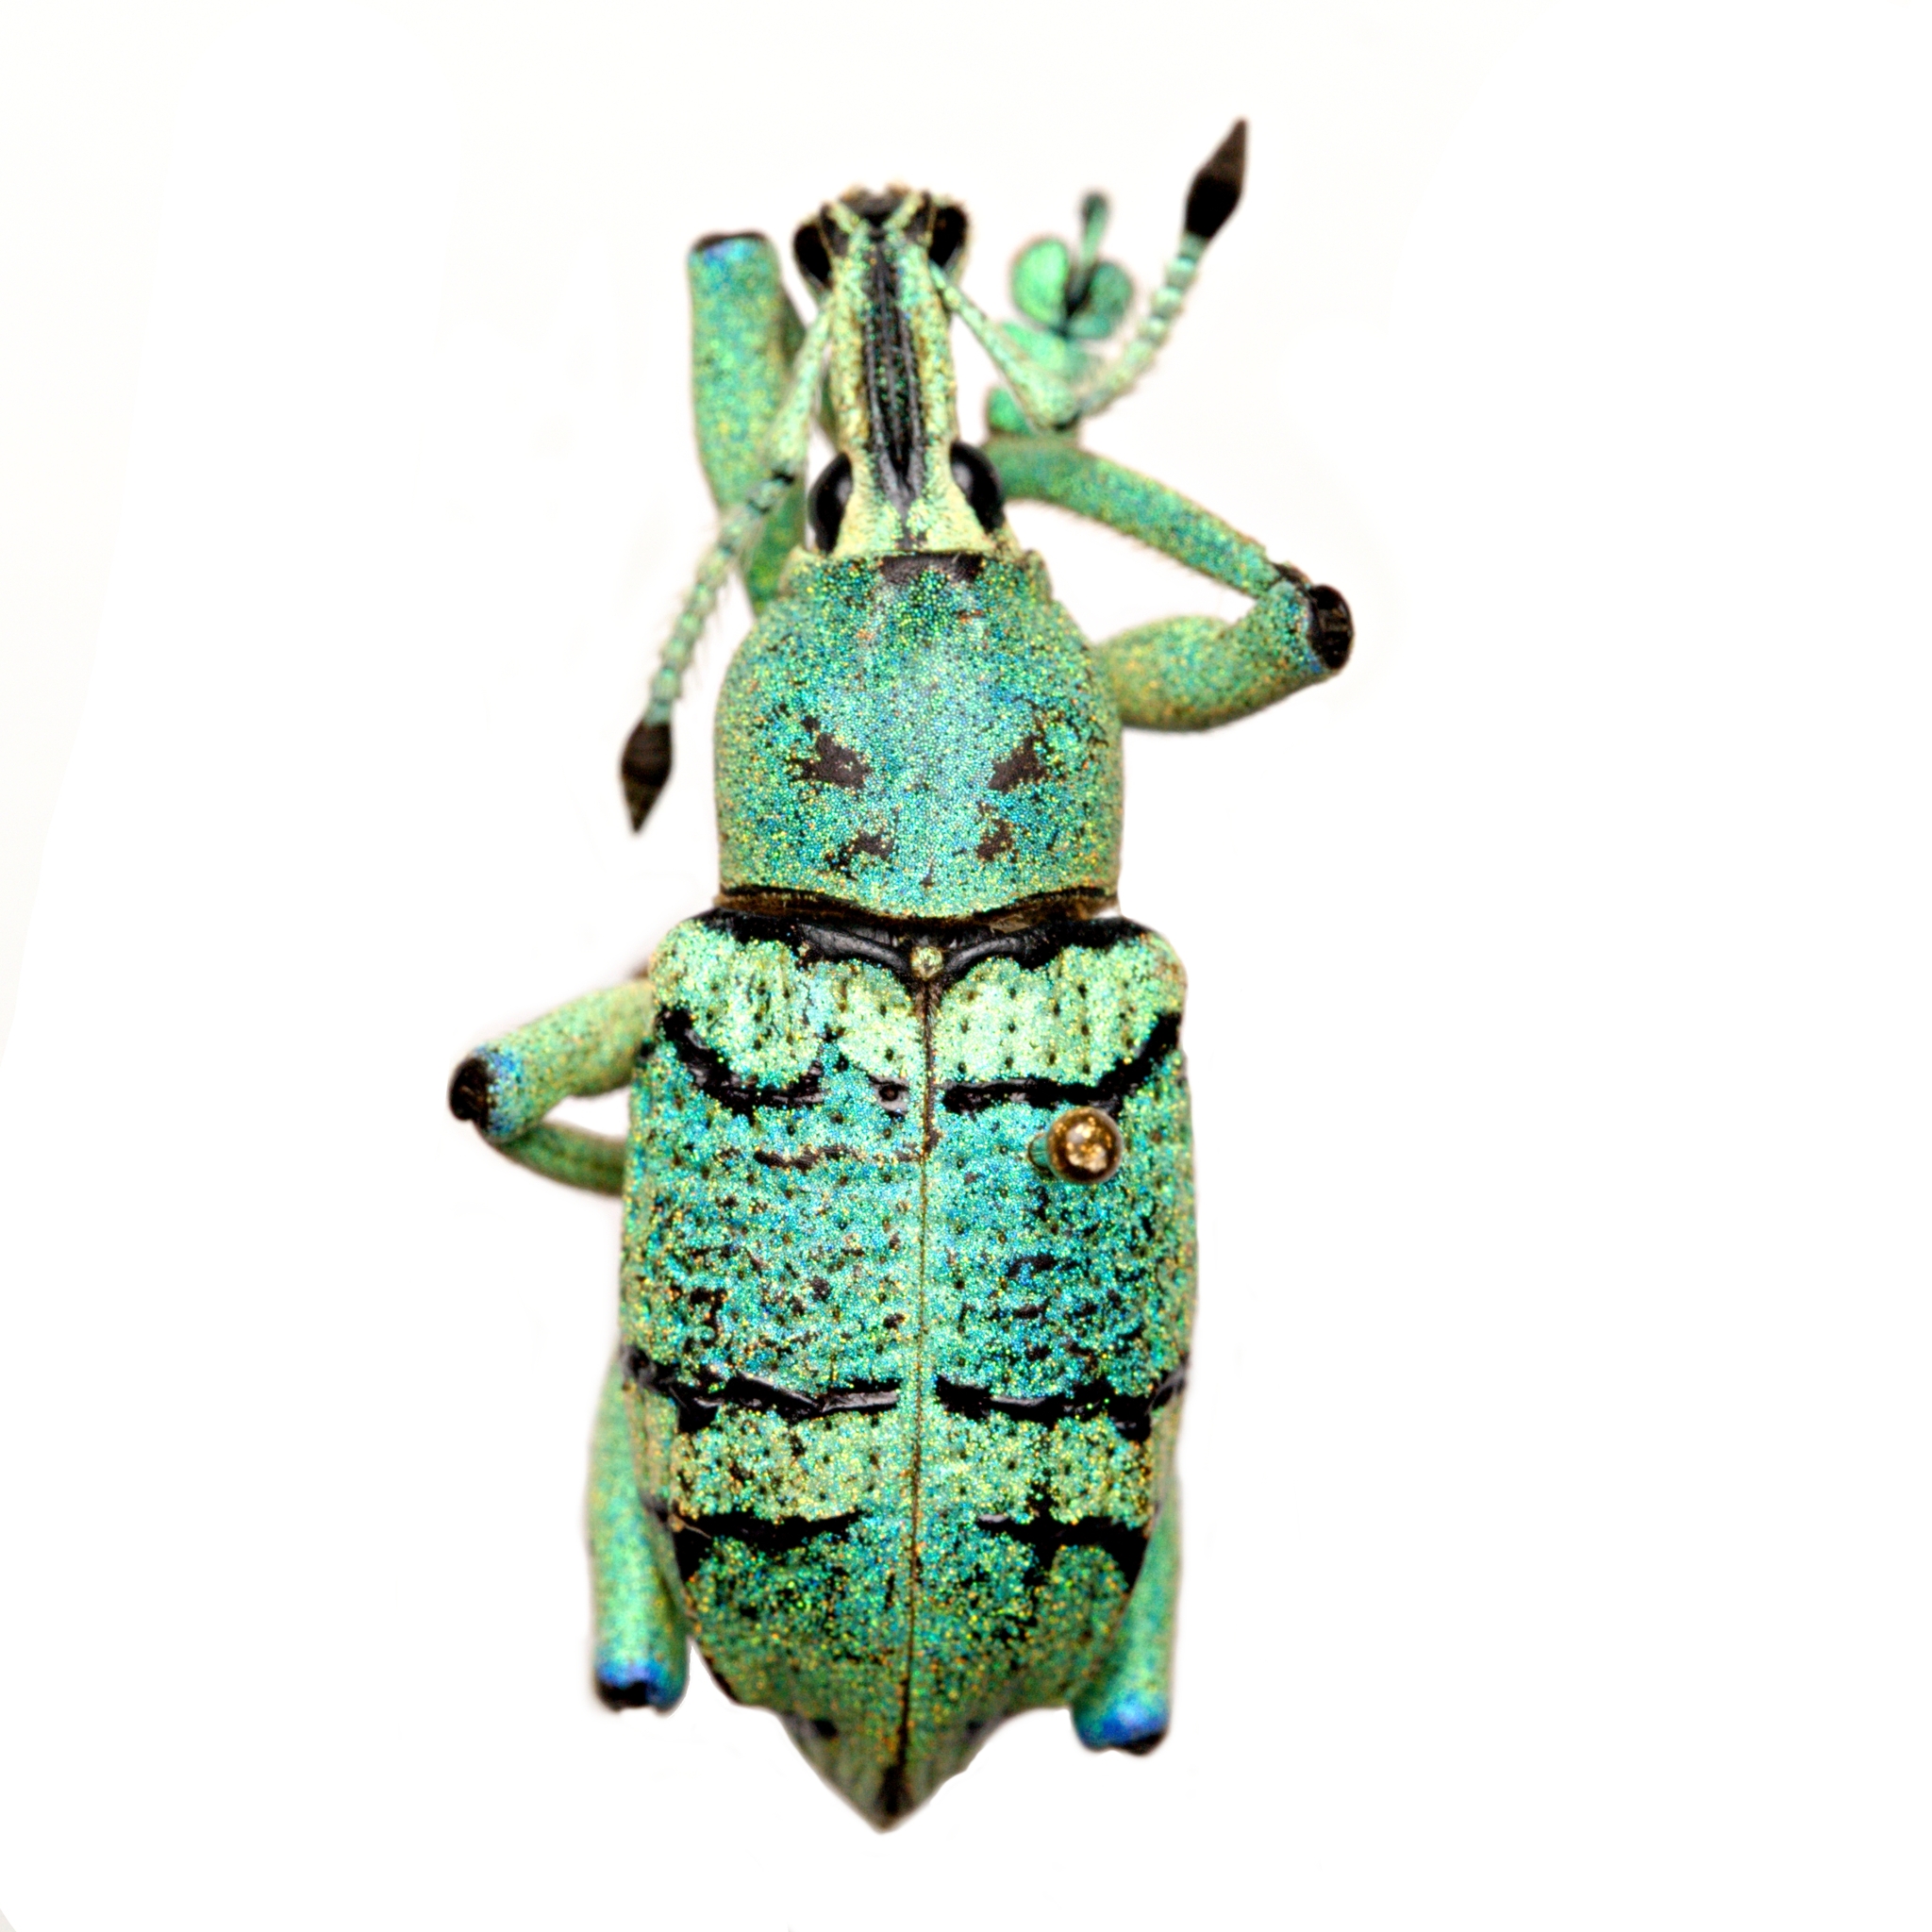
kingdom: Animalia
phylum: Arthropoda
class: Insecta
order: Coleoptera
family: Curculionidae
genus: Eupholus
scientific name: Eupholus schoenherri
